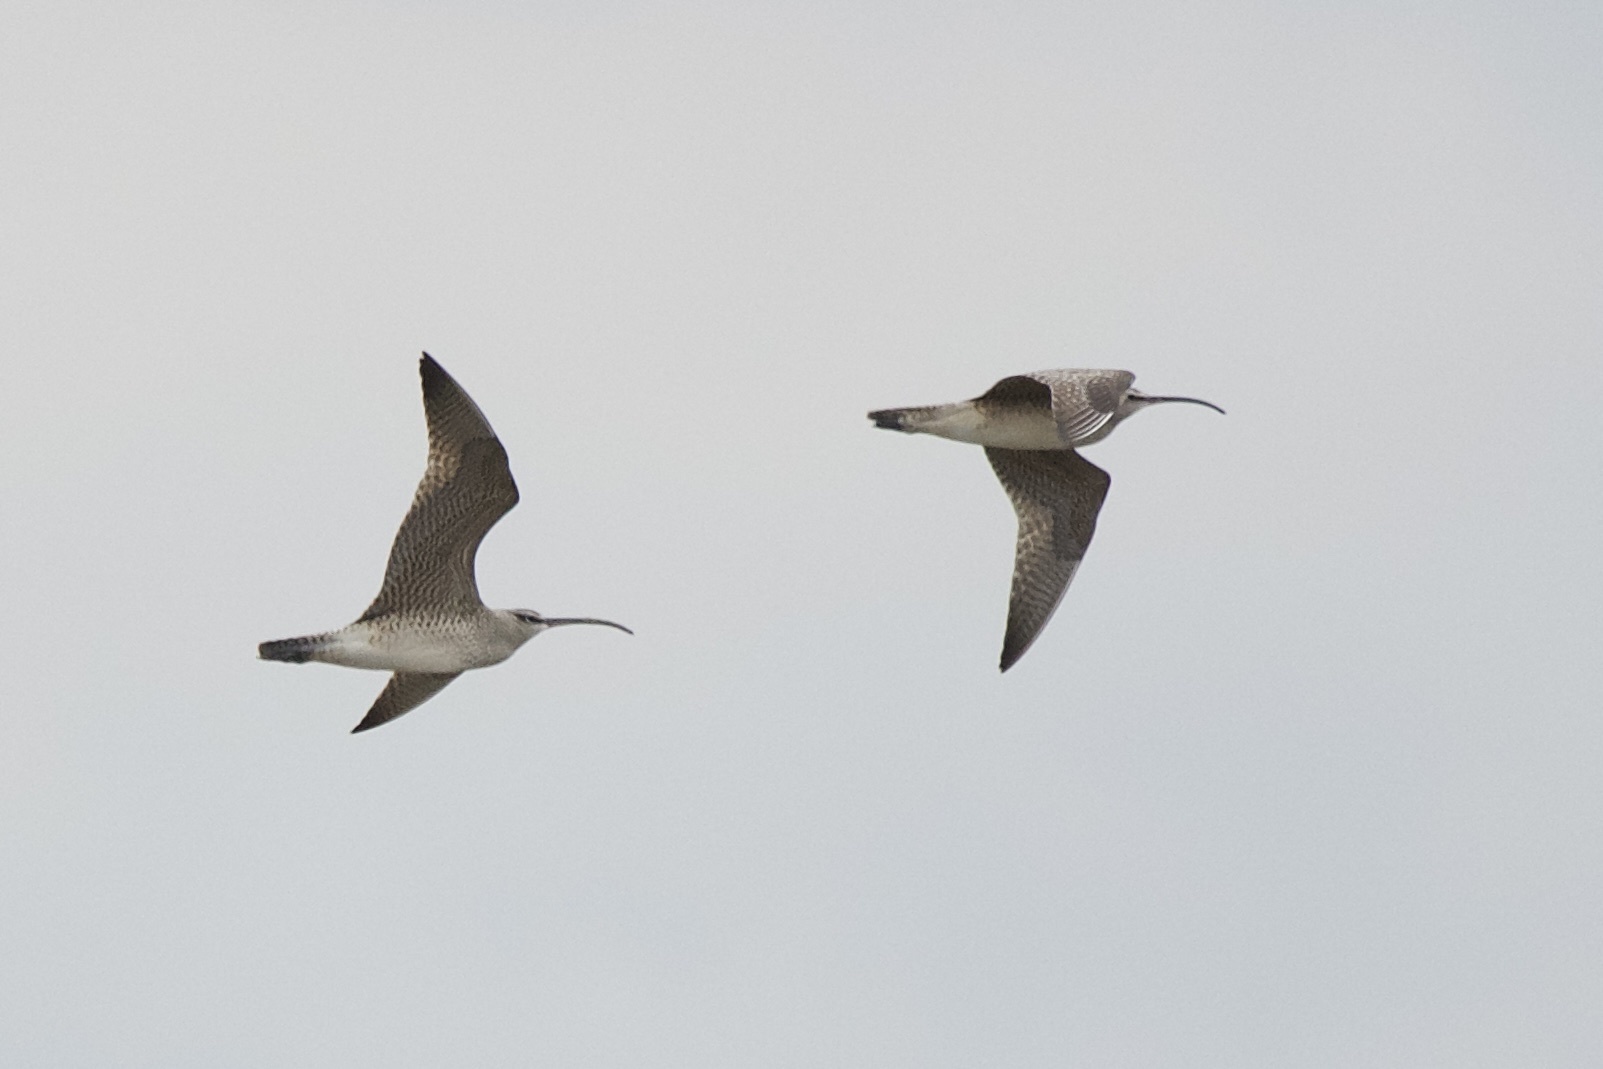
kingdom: Animalia
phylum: Chordata
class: Aves
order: Charadriiformes
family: Scolopacidae
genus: Numenius
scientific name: Numenius phaeopus
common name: Whimbrel
